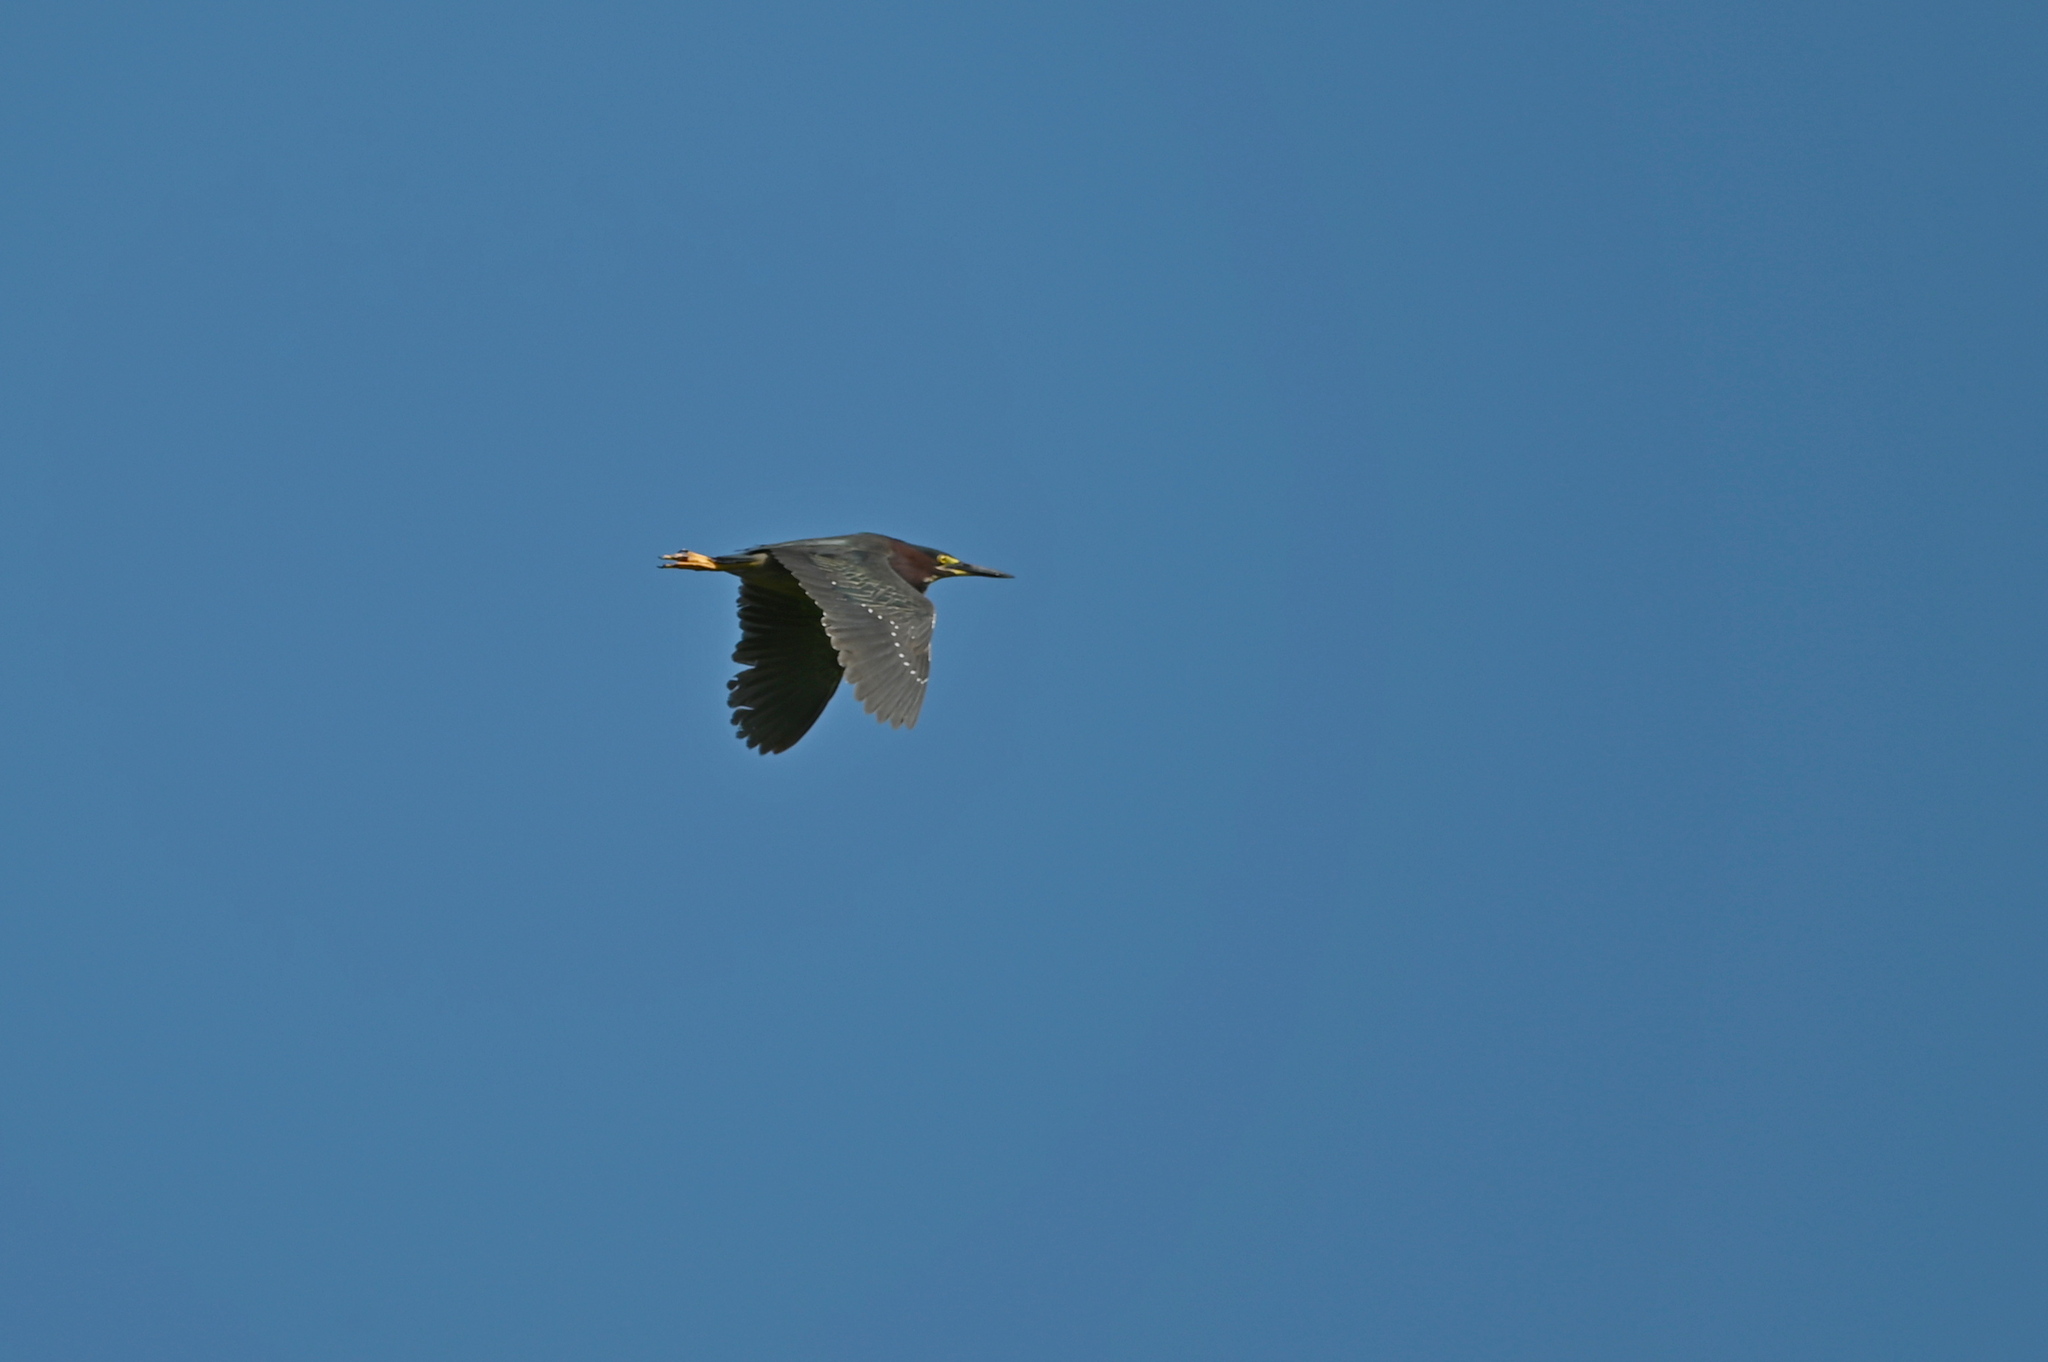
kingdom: Animalia
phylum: Chordata
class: Aves
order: Pelecaniformes
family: Ardeidae
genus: Butorides
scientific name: Butorides virescens
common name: Green heron
